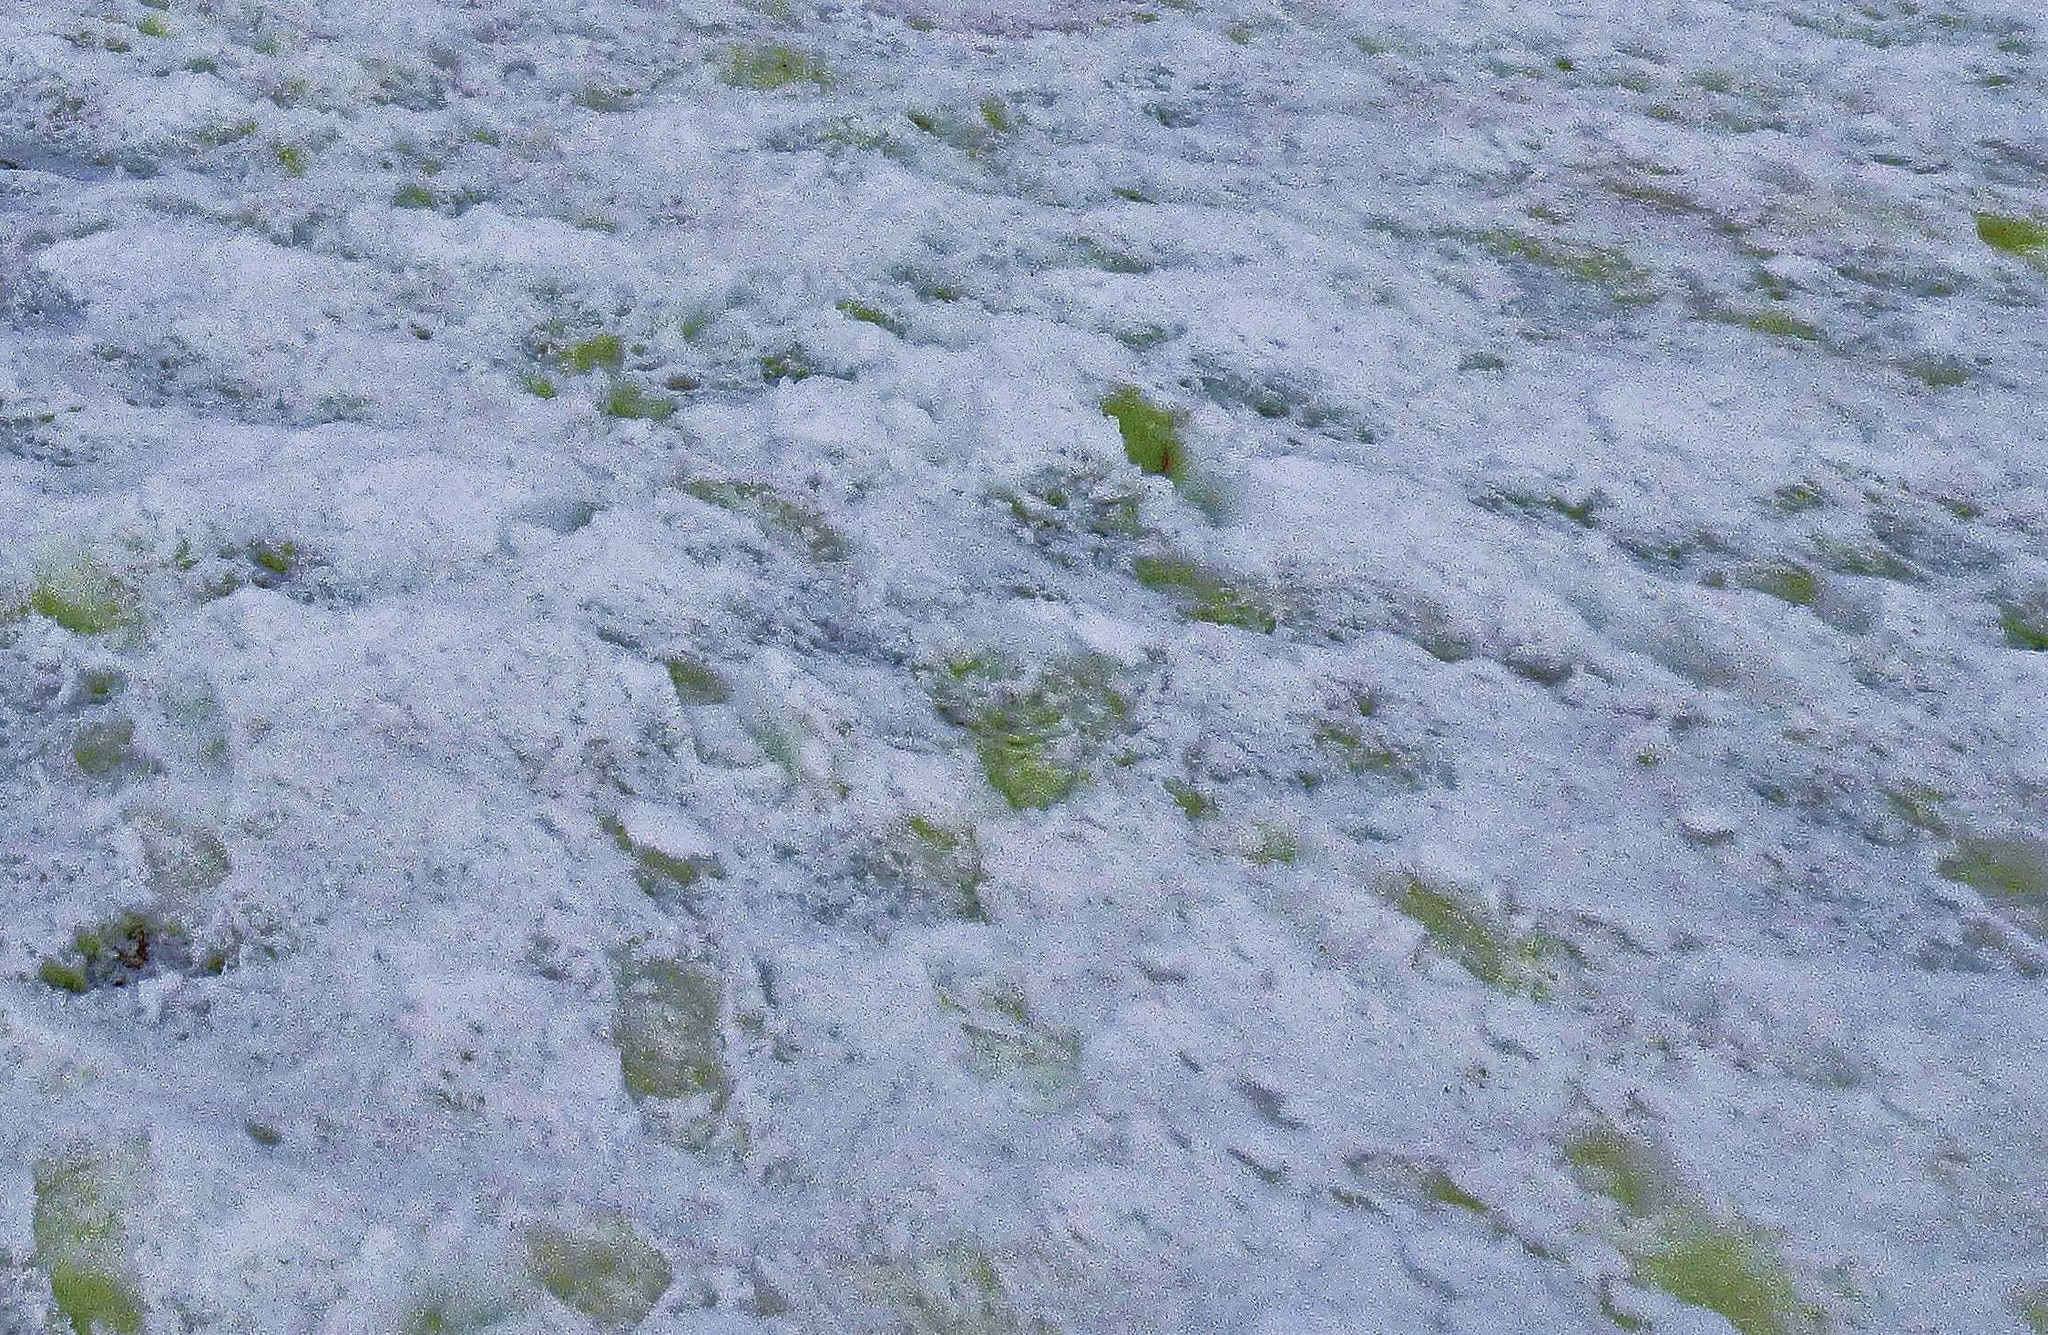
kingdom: Plantae
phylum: Chlorophyta
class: Chlorophyceae
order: Volvocales
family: Chlamydomonadaceae
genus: Chlamydomonas
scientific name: Chlamydomonas nivalis
